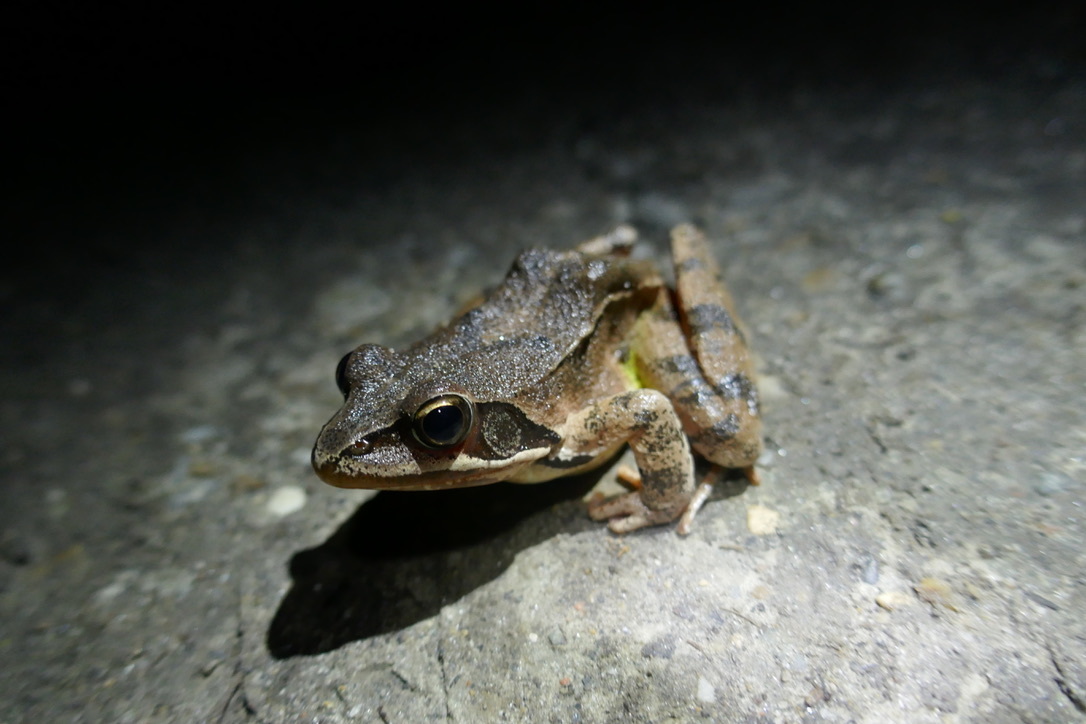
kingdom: Animalia
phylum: Chordata
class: Amphibia
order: Anura
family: Ranidae
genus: Rana
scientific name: Rana dalmatina
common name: Agile frog
